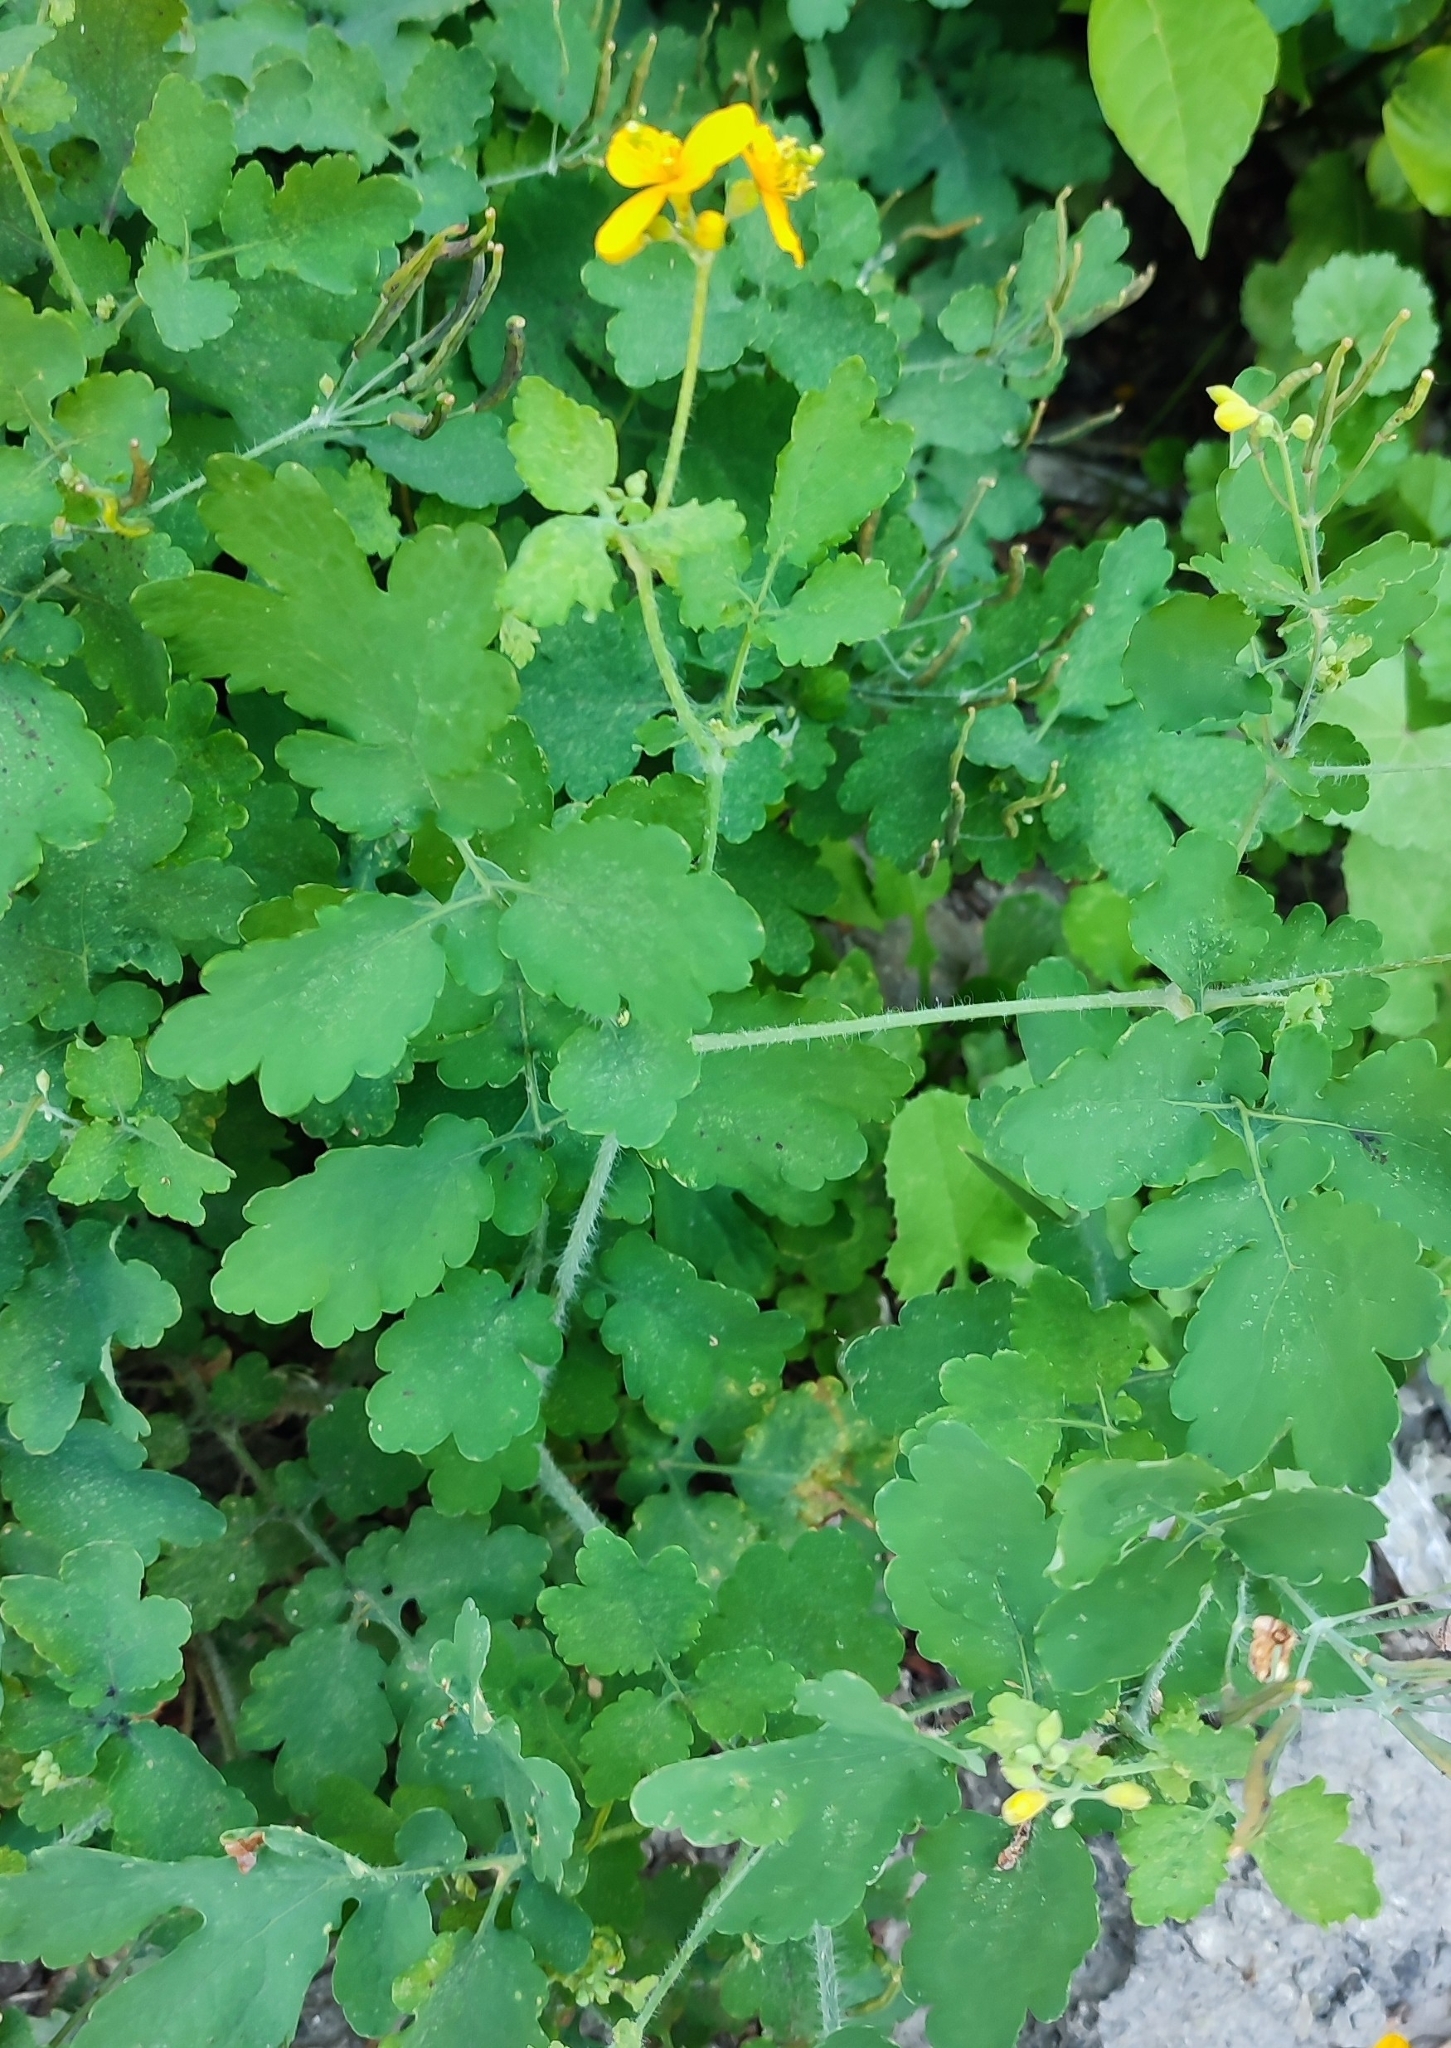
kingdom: Plantae
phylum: Tracheophyta
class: Magnoliopsida
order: Ranunculales
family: Papaveraceae
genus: Chelidonium
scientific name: Chelidonium majus
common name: Greater celandine
